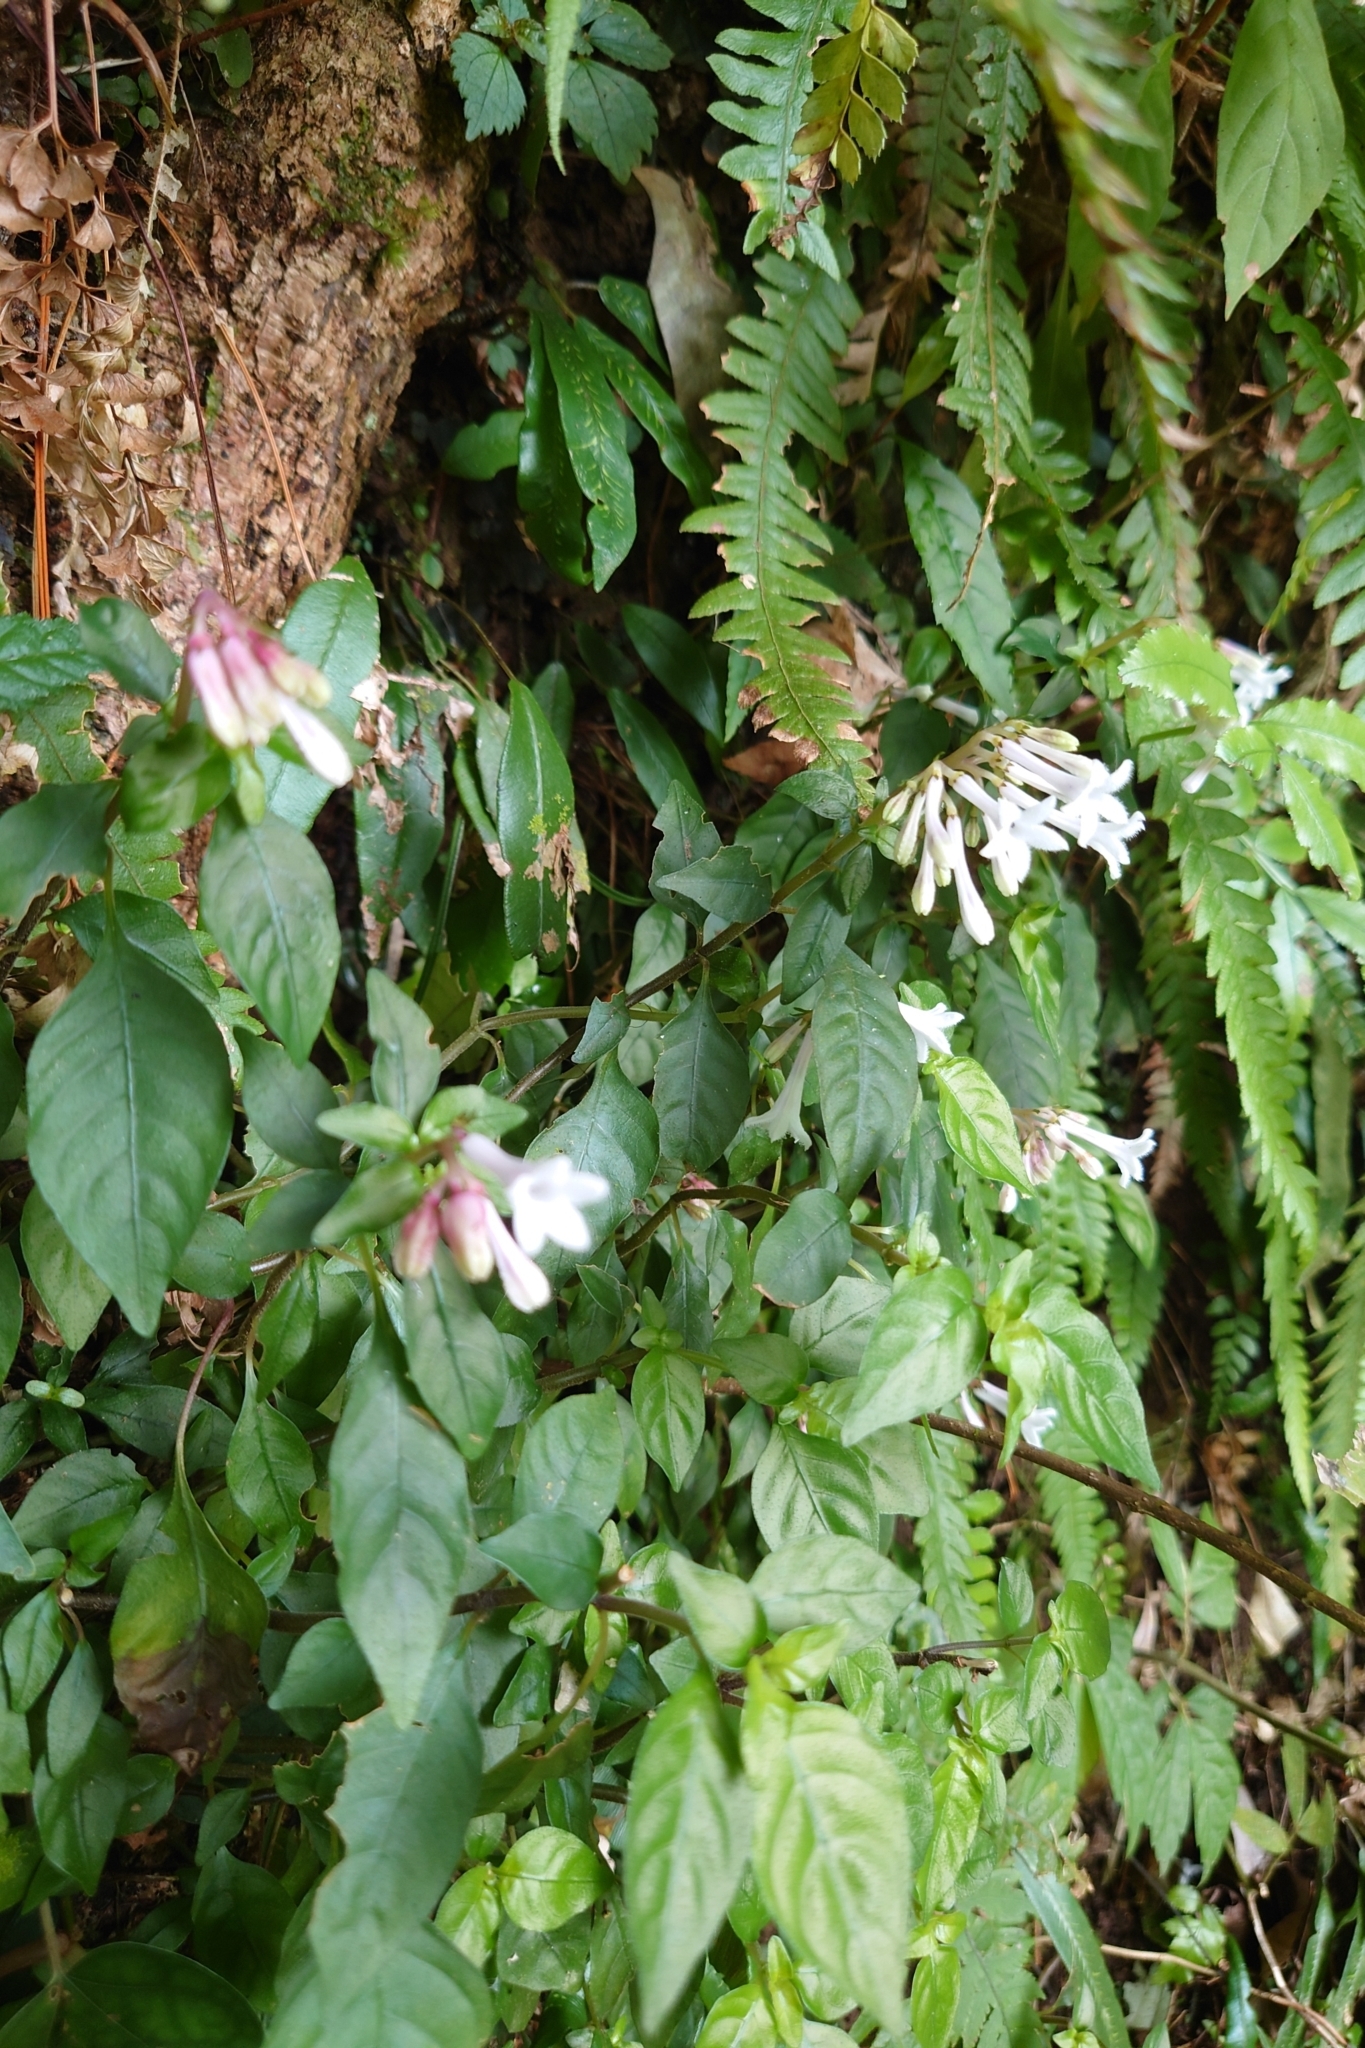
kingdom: Plantae
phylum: Tracheophyta
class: Magnoliopsida
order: Gentianales
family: Rubiaceae
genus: Ophiorrhiza
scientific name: Ophiorrhiza japonica
